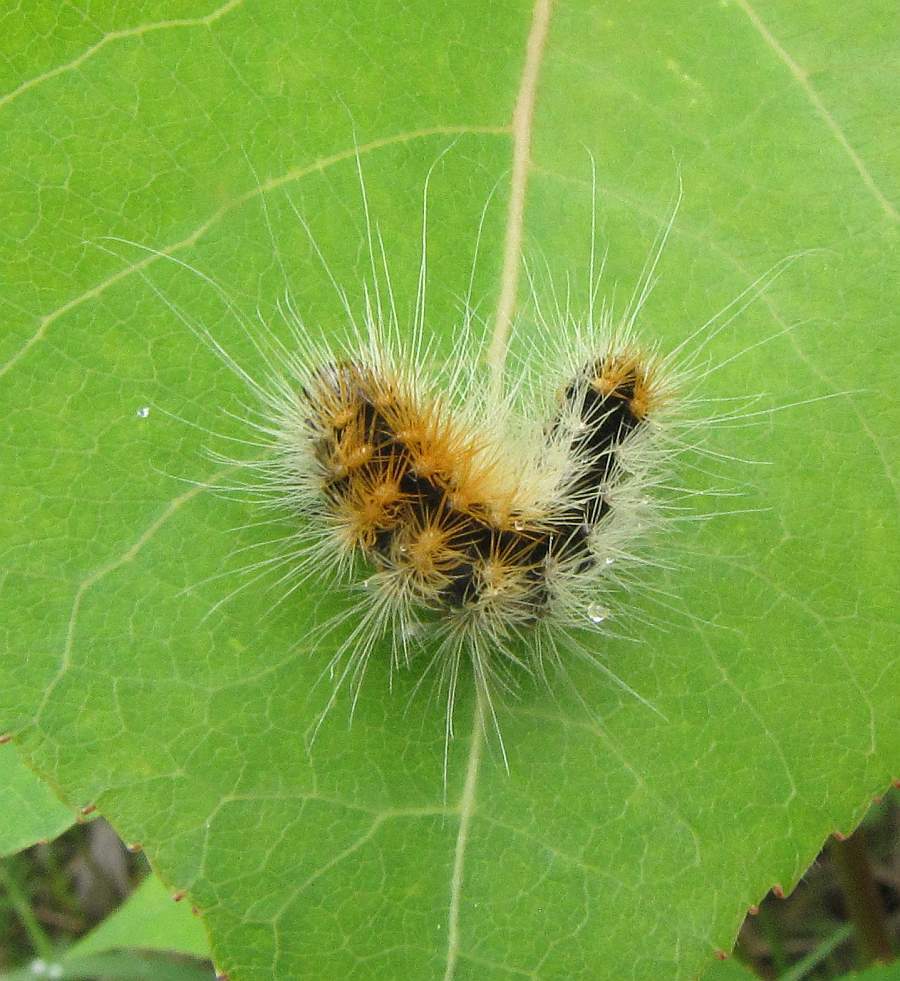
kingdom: Animalia
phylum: Arthropoda
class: Insecta
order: Lepidoptera
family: Noctuidae
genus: Acronicta
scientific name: Acronicta impressa
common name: Impressed dagger
